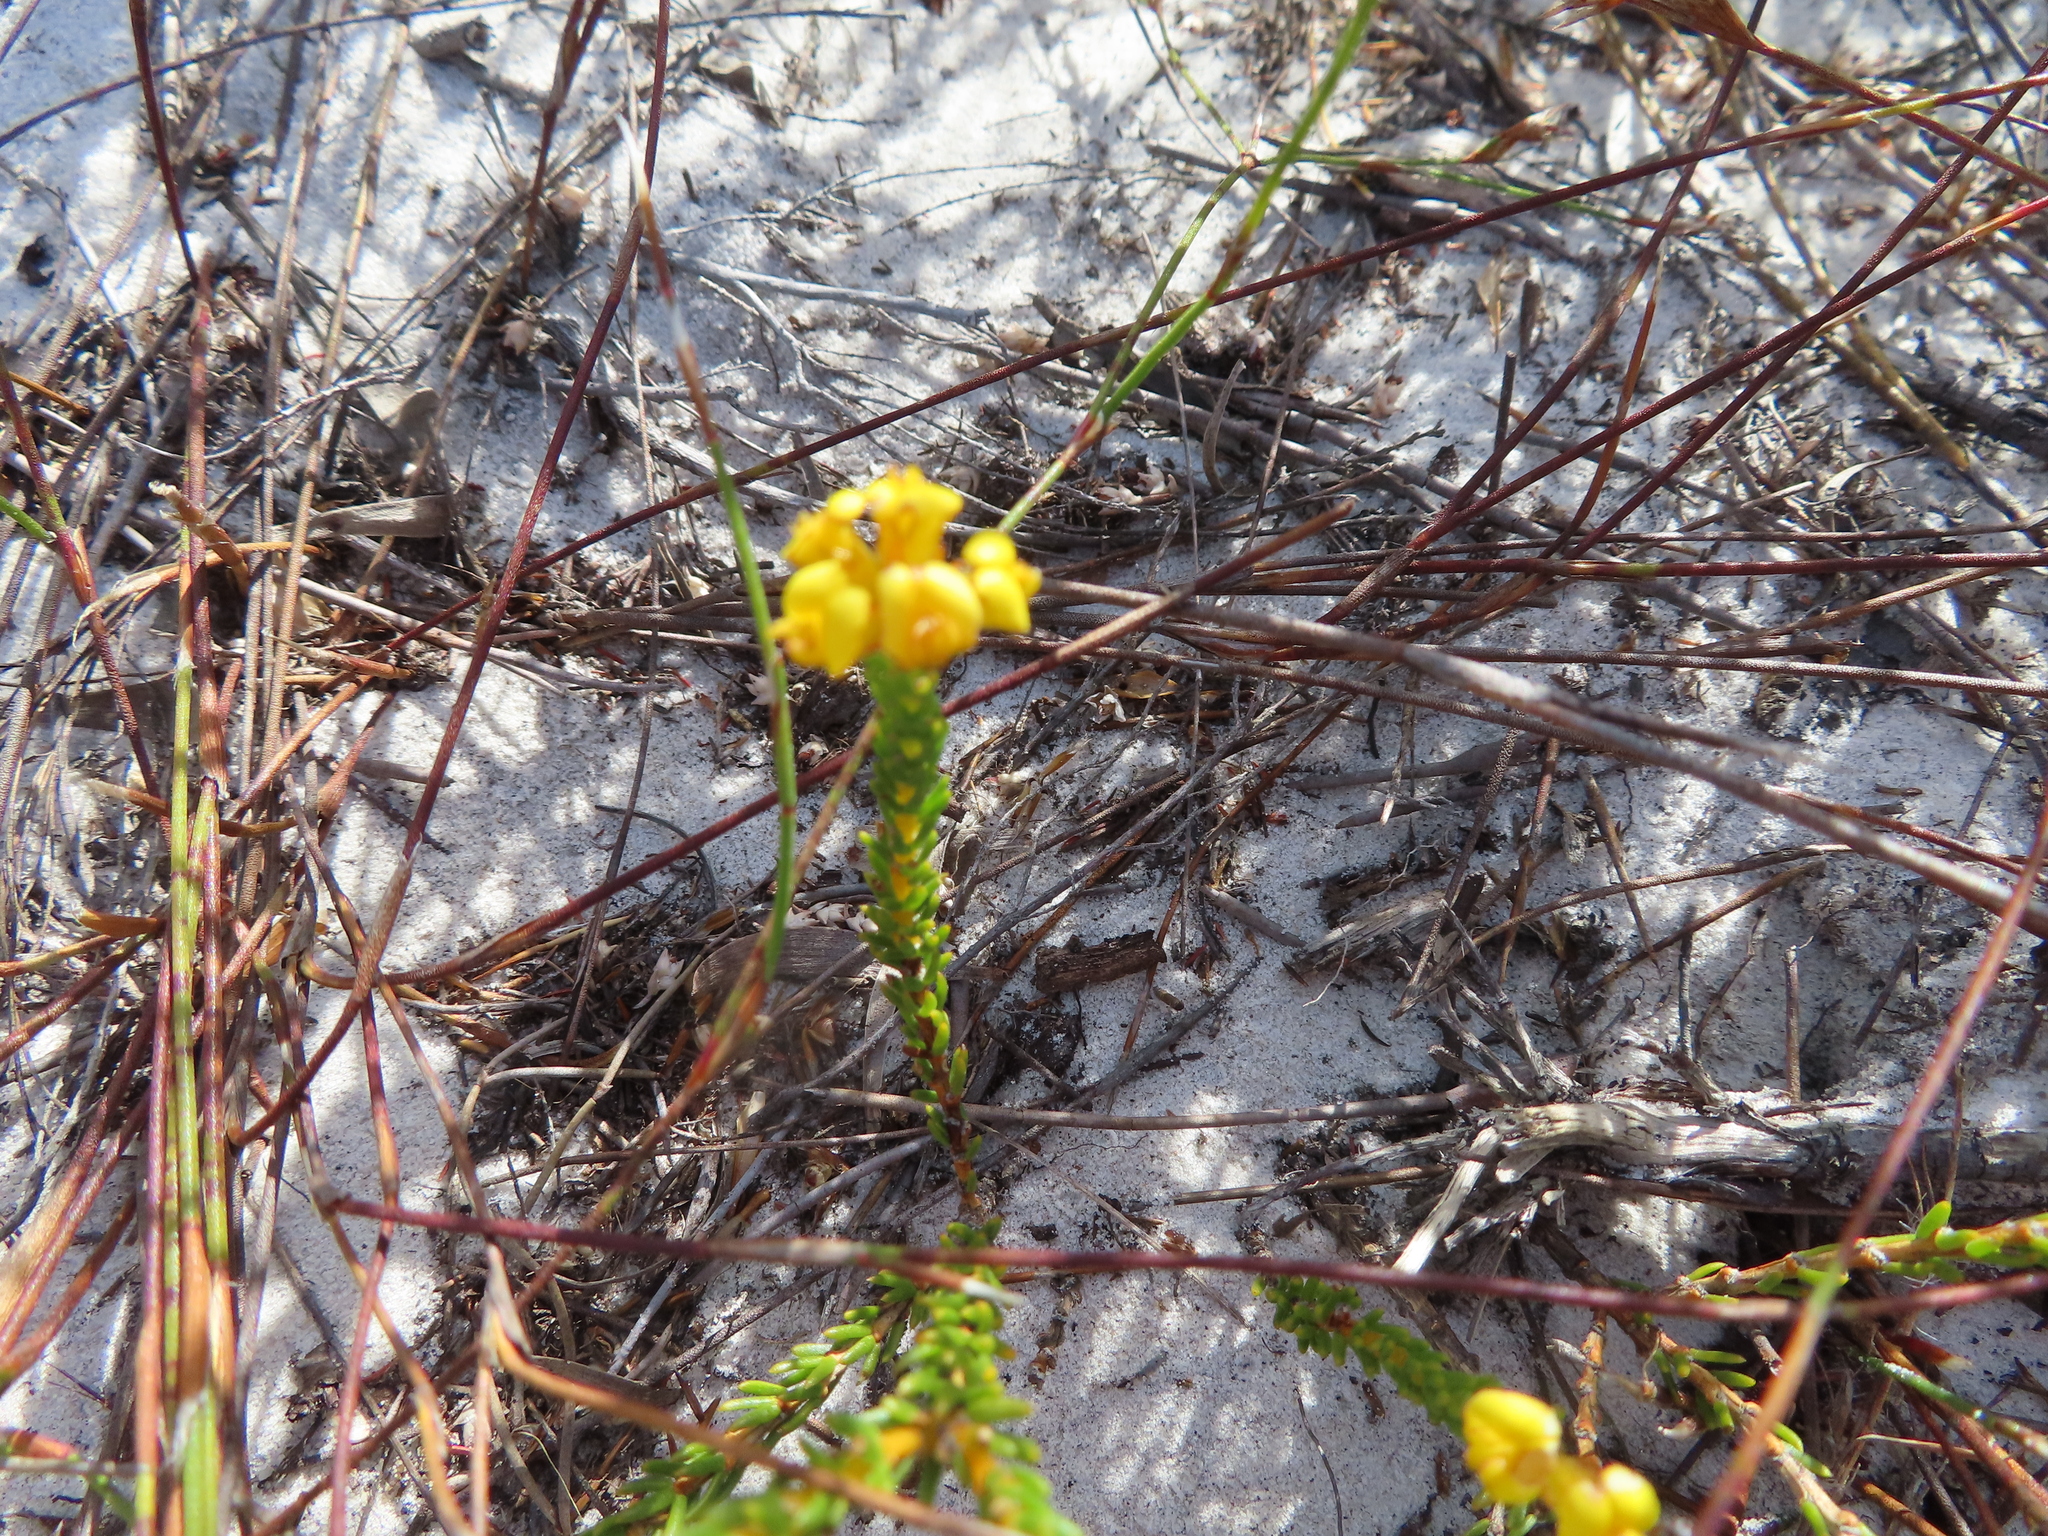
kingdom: Plantae
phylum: Tracheophyta
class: Magnoliopsida
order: Fabales
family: Fabaceae
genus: Aspalathus
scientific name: Aspalathus callosa
